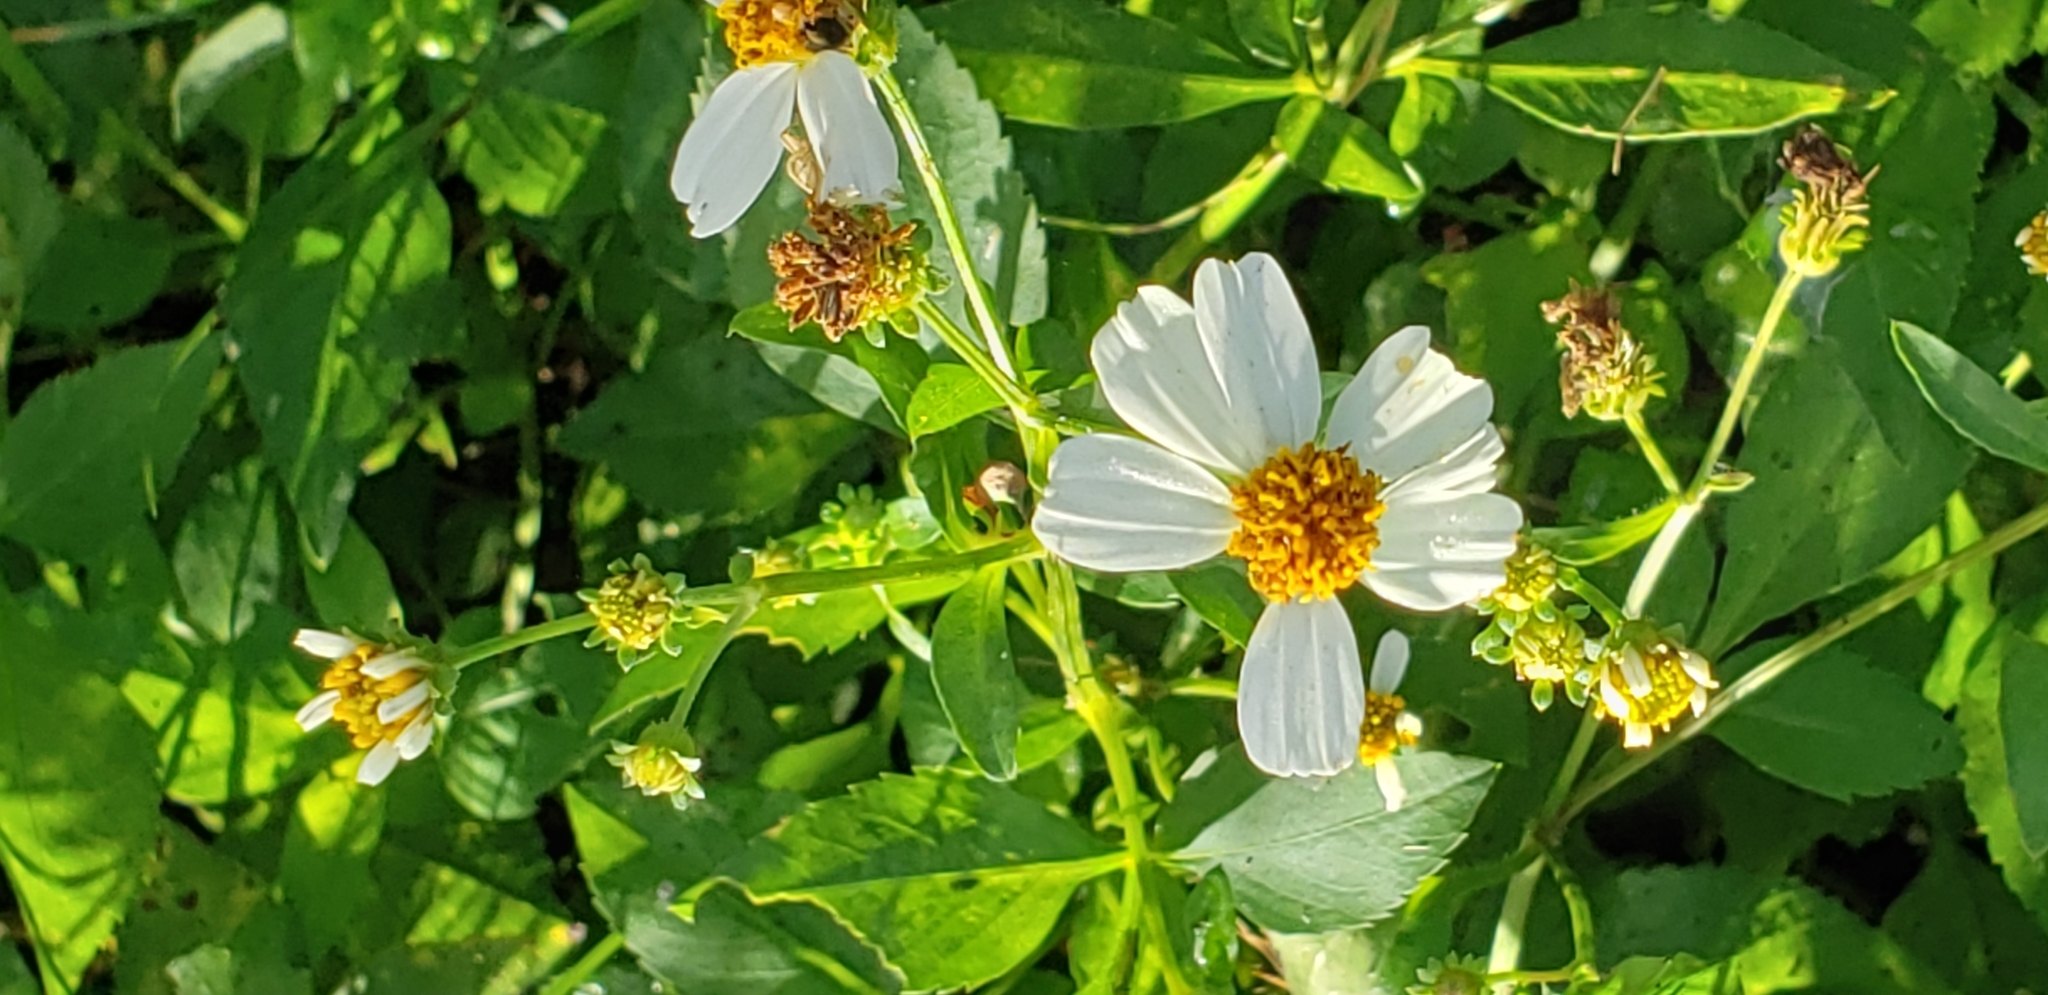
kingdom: Plantae
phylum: Tracheophyta
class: Magnoliopsida
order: Asterales
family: Asteraceae
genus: Bidens
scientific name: Bidens alba
